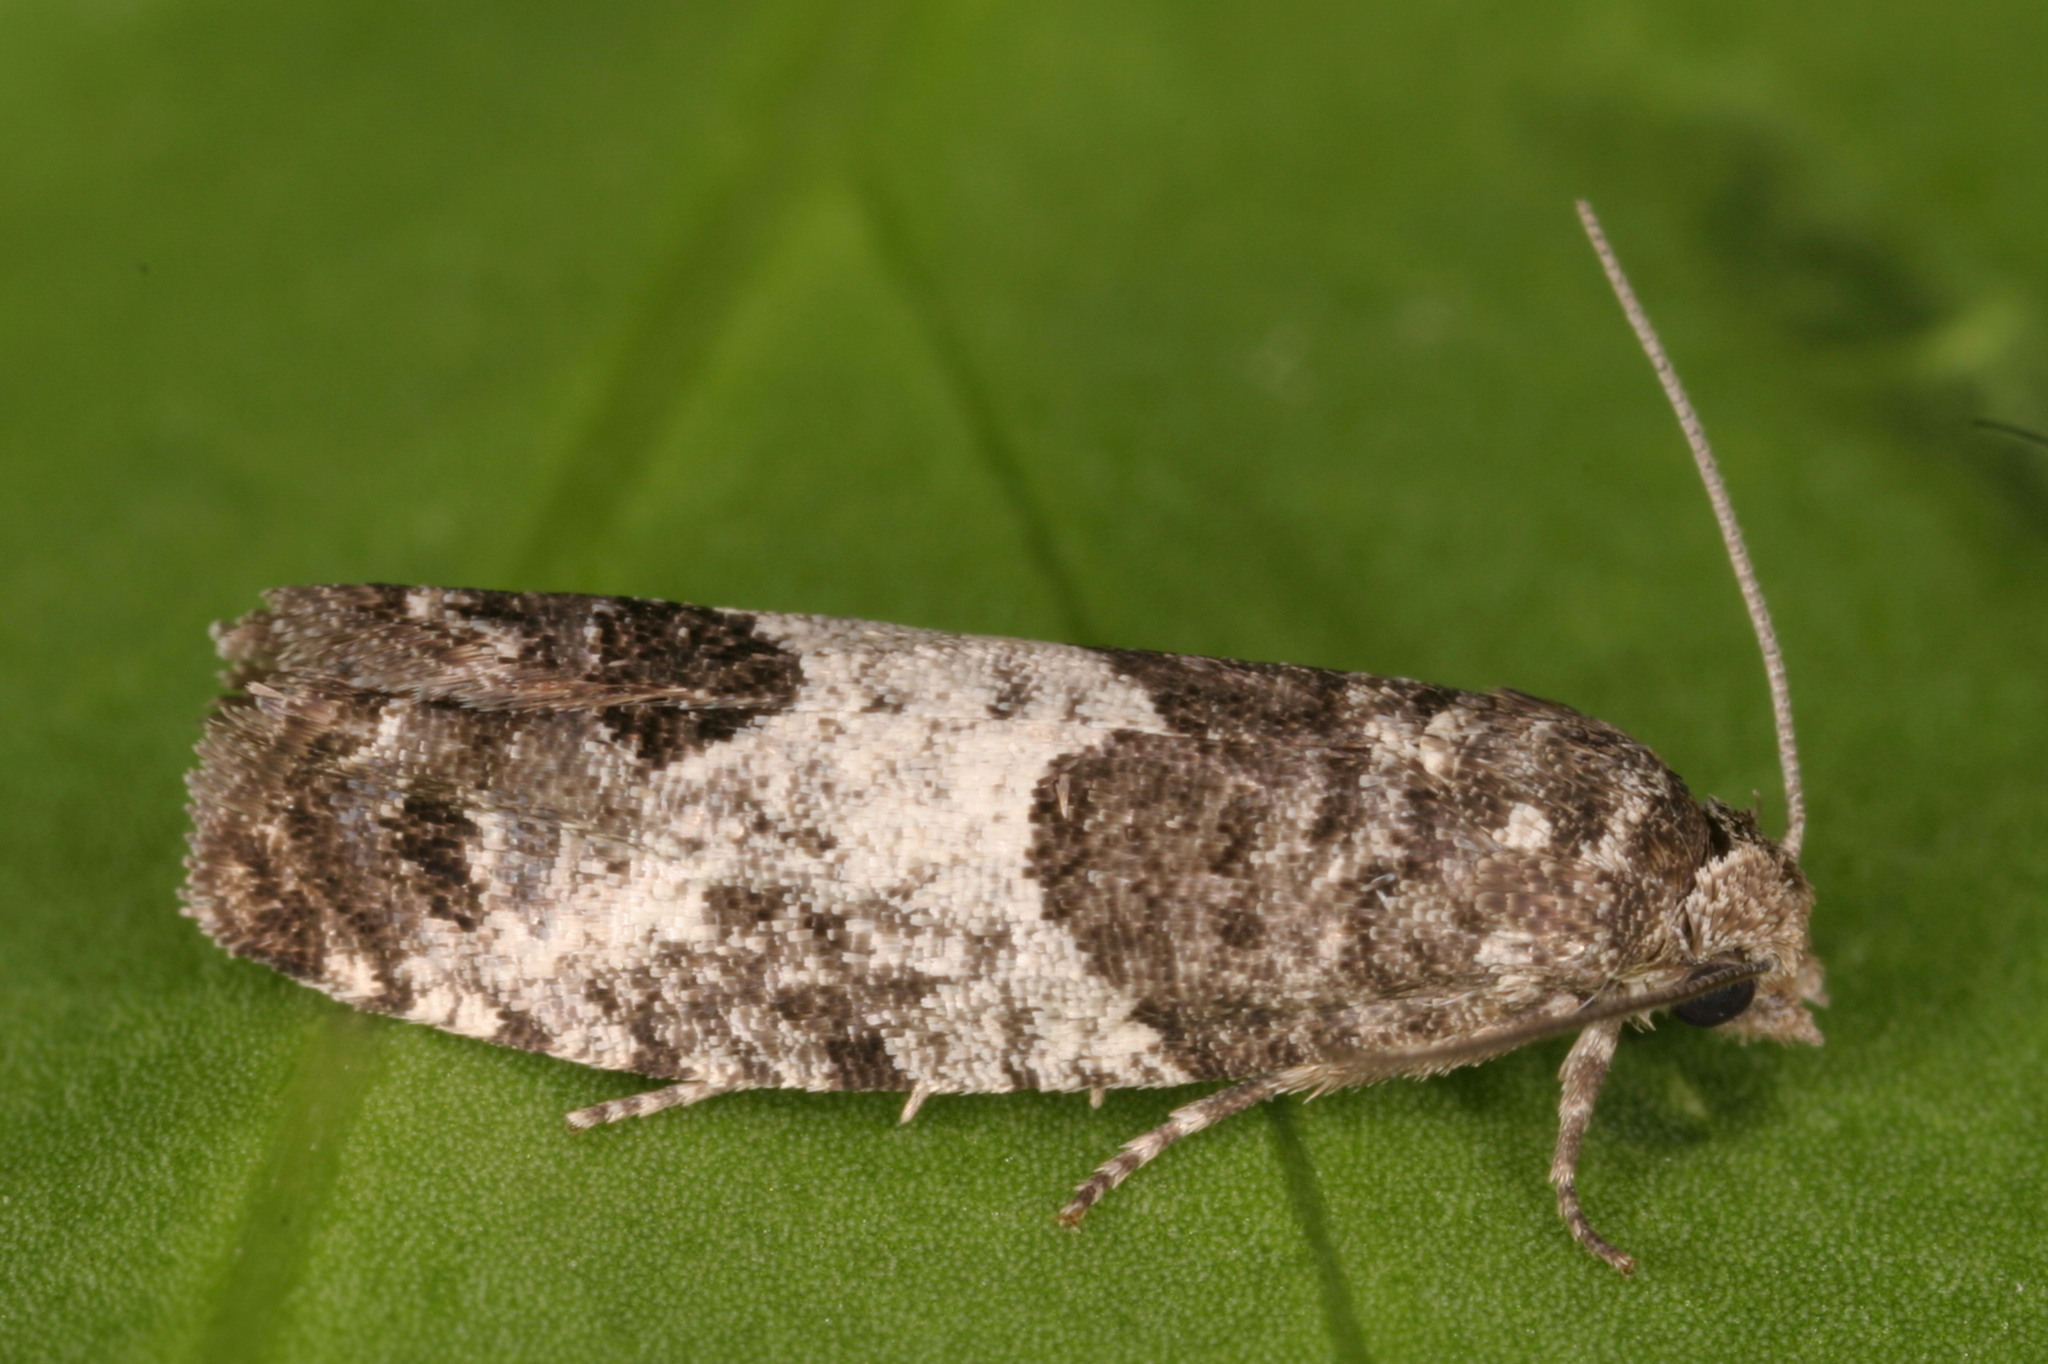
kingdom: Animalia
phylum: Arthropoda
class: Insecta
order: Lepidoptera
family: Tortricidae
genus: Spilonota
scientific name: Spilonota ocellana
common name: Bud moth
